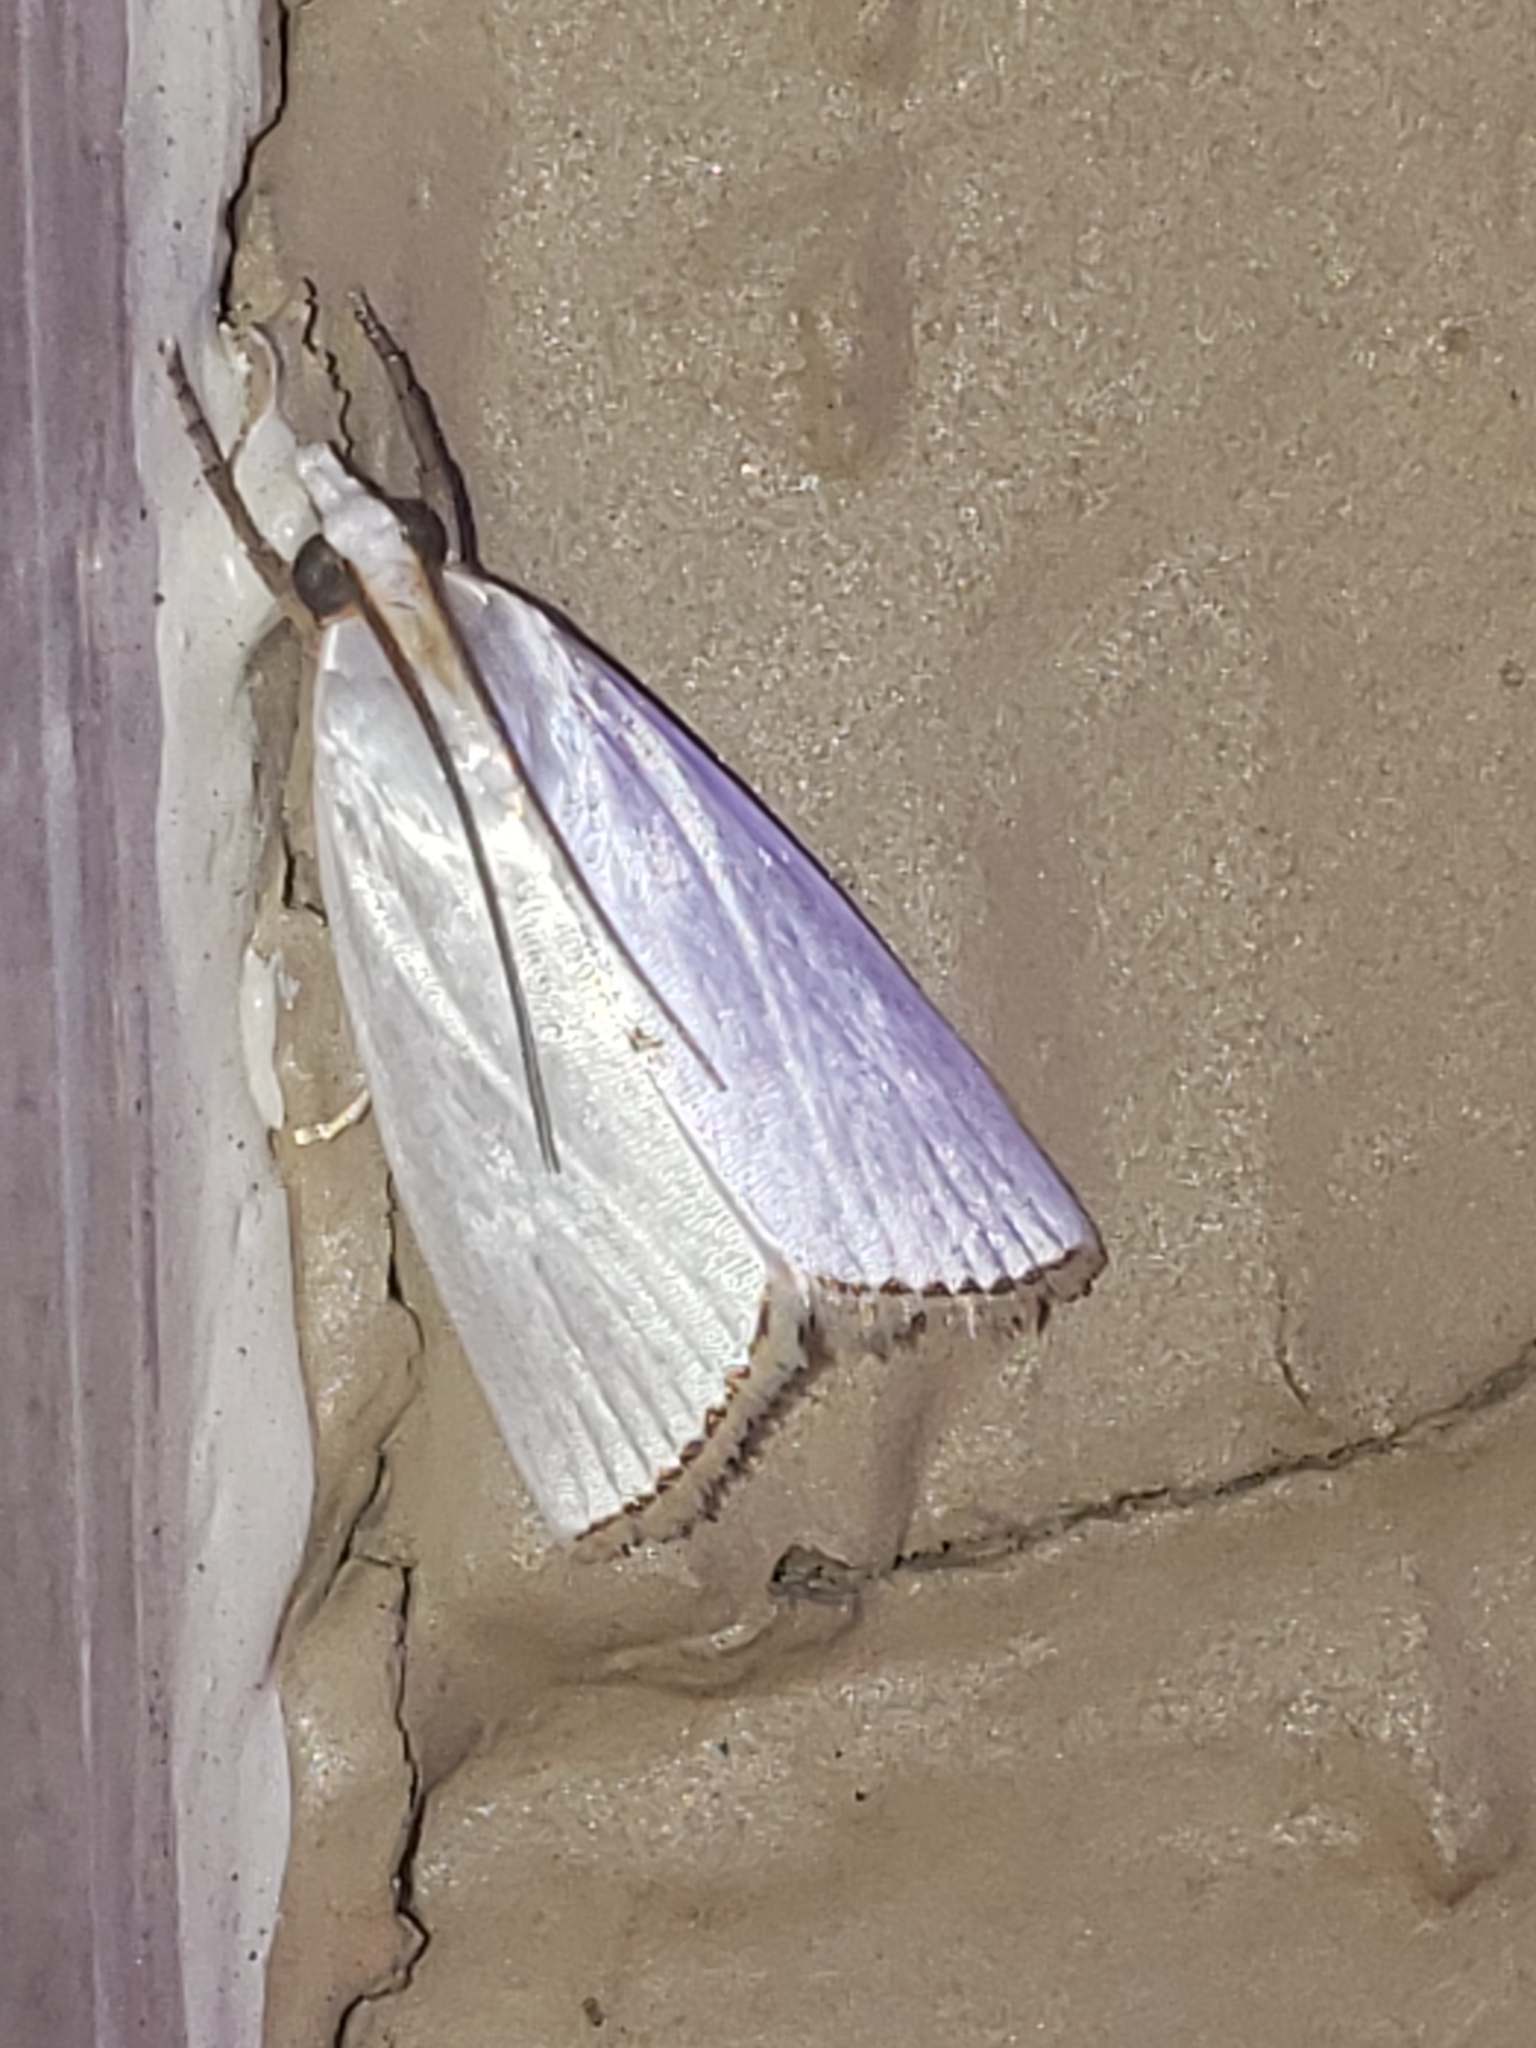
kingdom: Animalia
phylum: Arthropoda
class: Insecta
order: Lepidoptera
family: Crambidae
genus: Argyria
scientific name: Argyria nivalis
